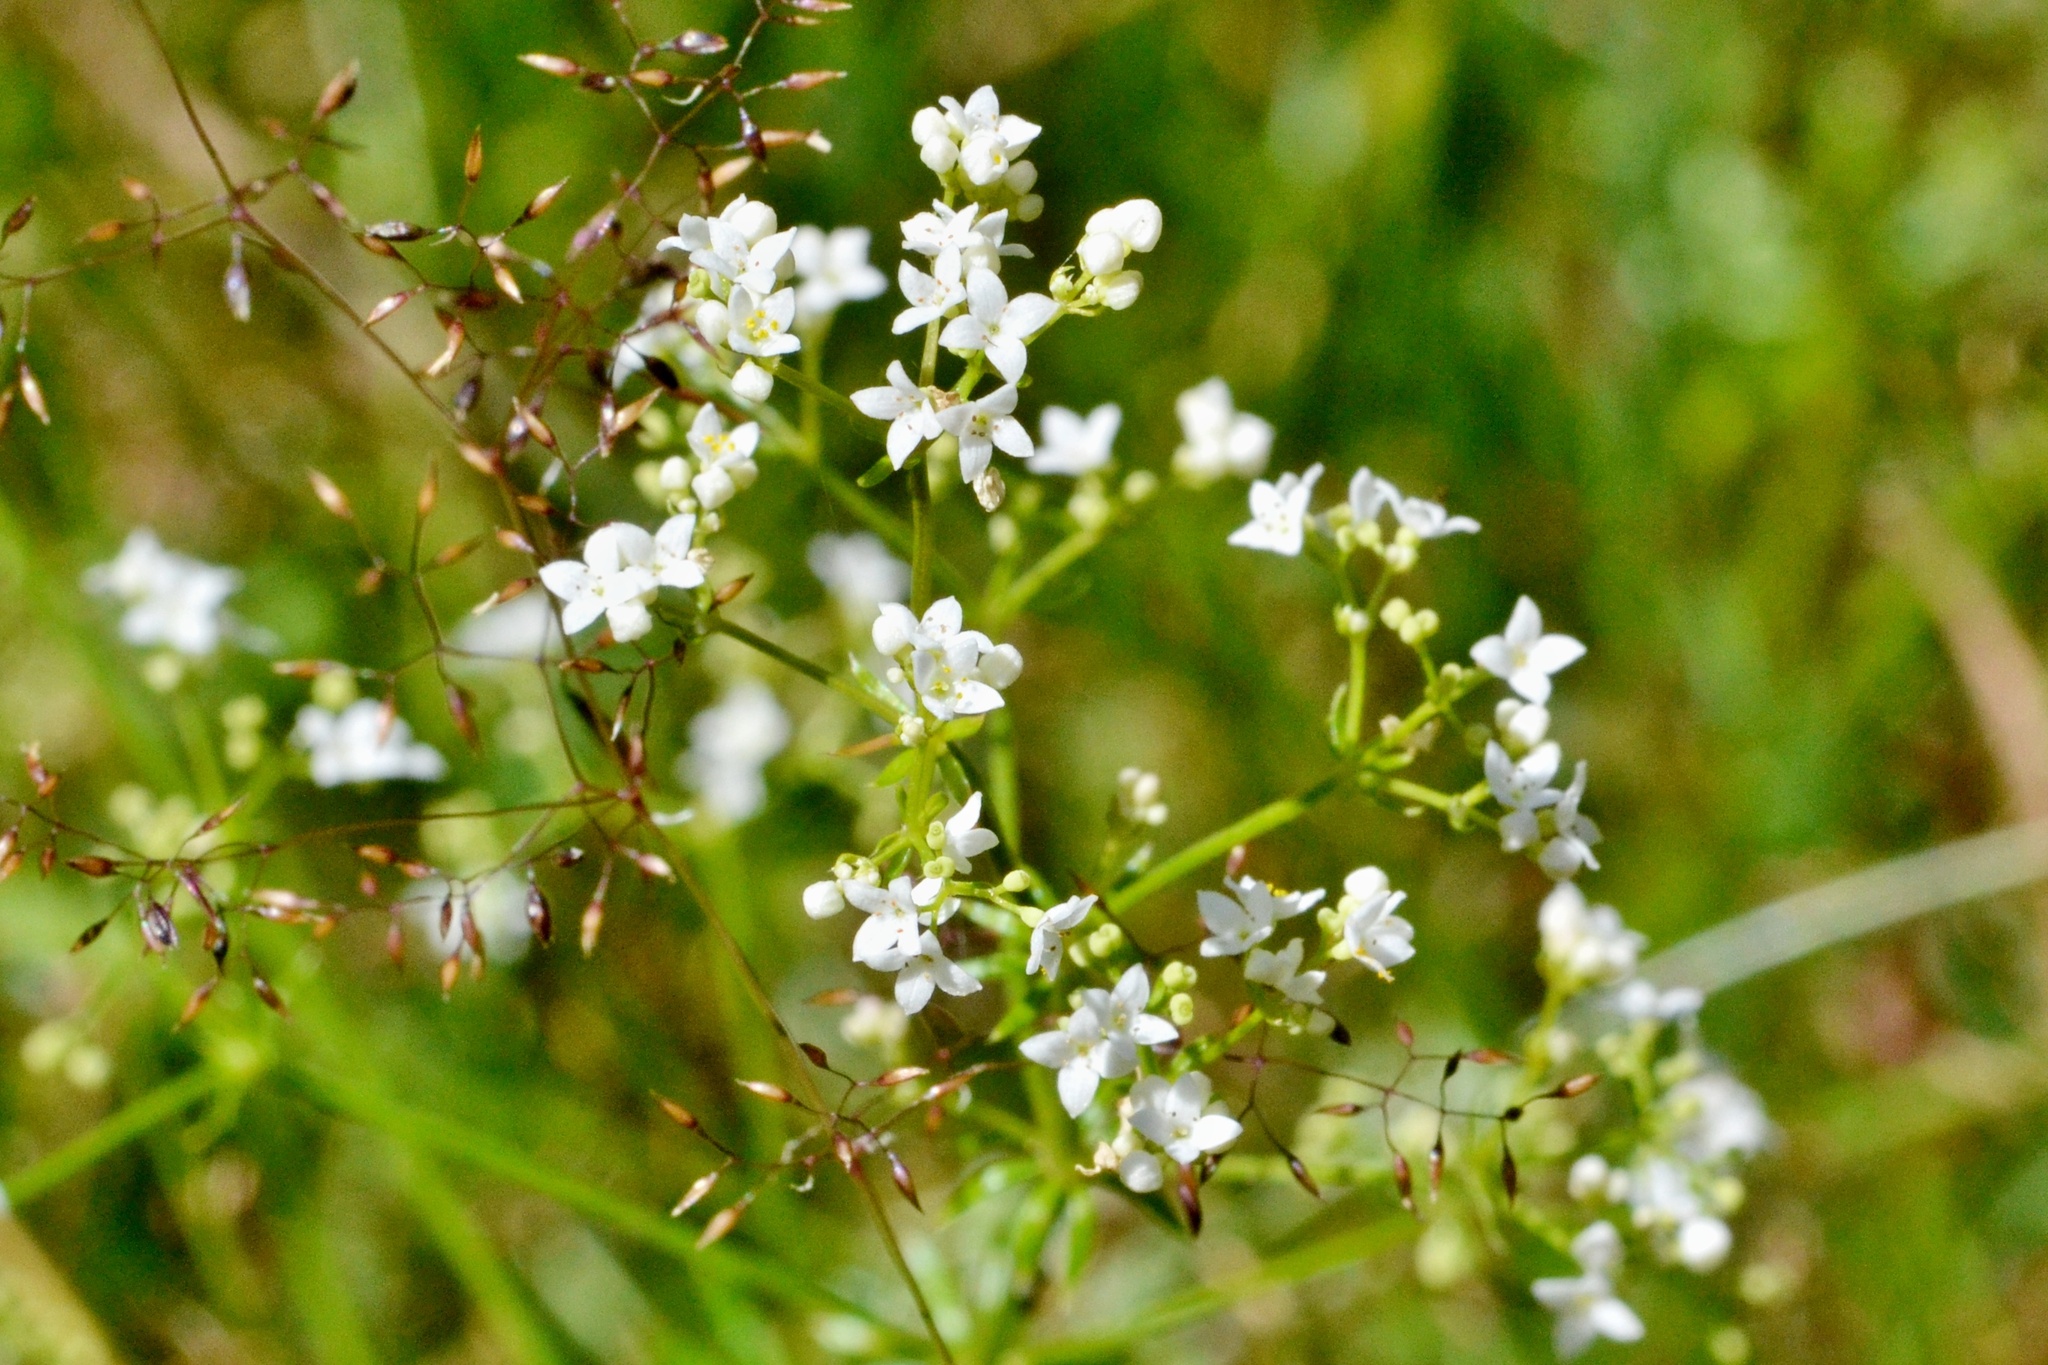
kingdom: Plantae
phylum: Tracheophyta
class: Magnoliopsida
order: Gentianales
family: Rubiaceae
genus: Galium
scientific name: Galium uliginosum
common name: Fen bedstraw
